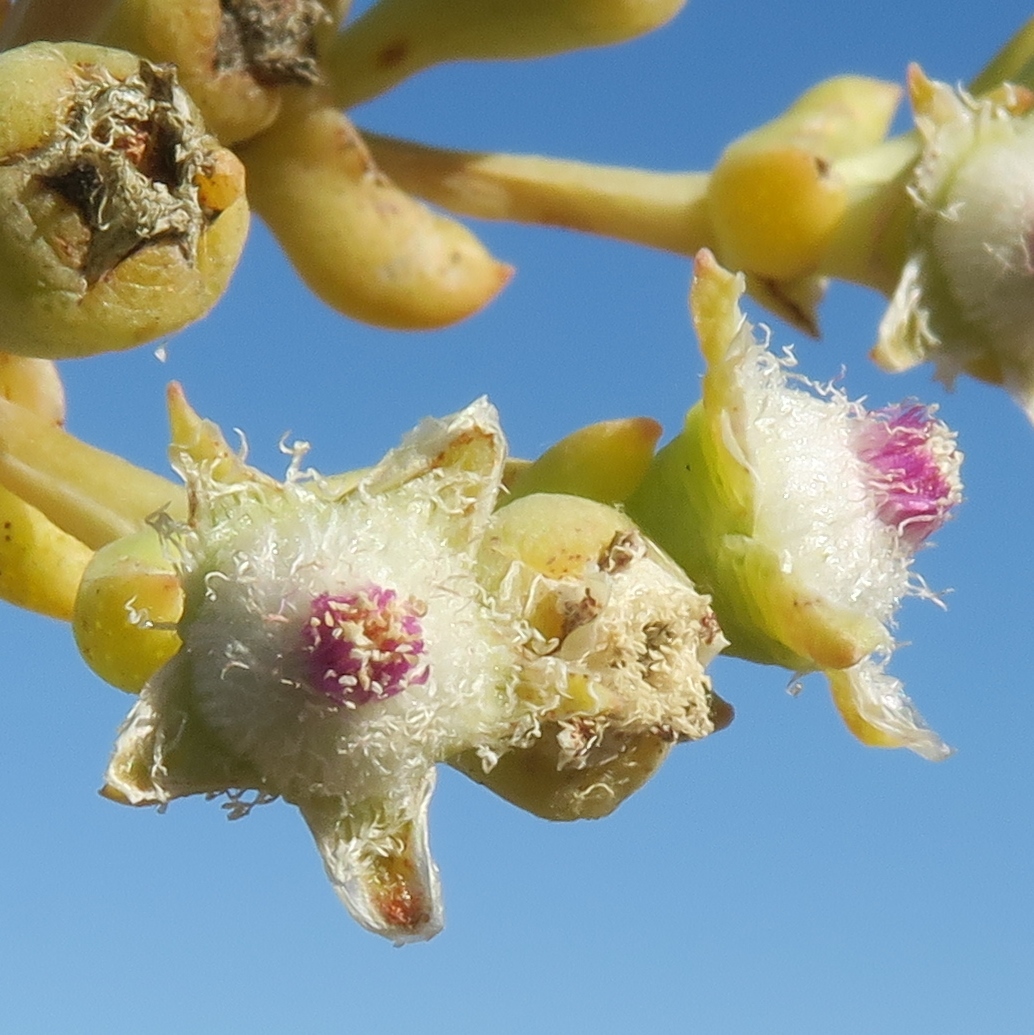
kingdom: Plantae
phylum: Tracheophyta
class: Magnoliopsida
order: Caryophyllales
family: Aizoaceae
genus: Stoeberia
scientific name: Stoeberia frutescens
